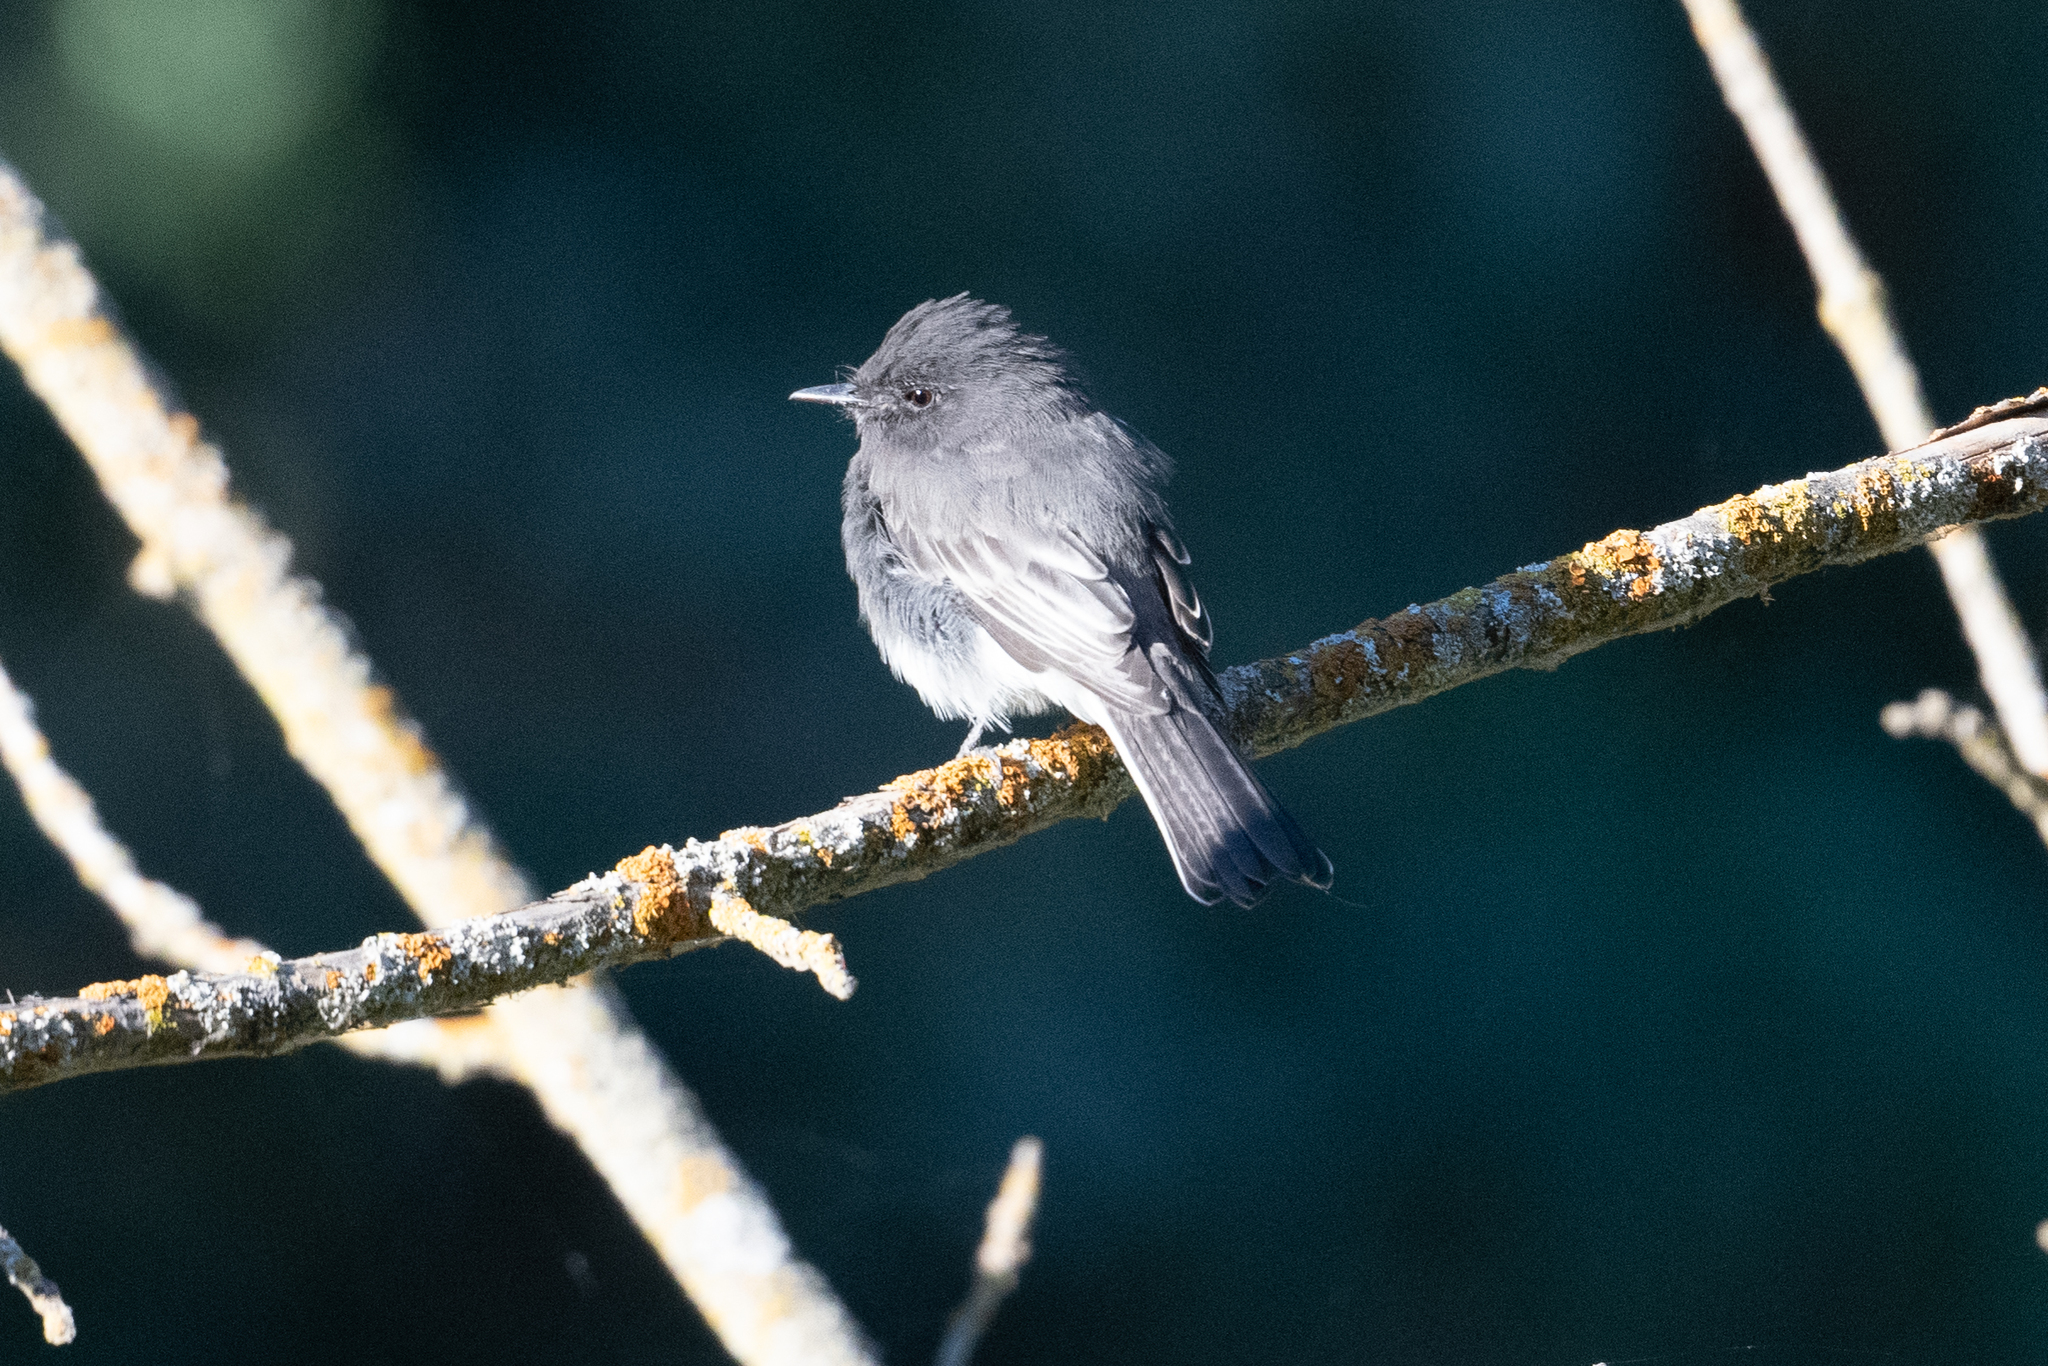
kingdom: Animalia
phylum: Chordata
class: Aves
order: Passeriformes
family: Tyrannidae
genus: Sayornis
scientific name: Sayornis nigricans
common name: Black phoebe
